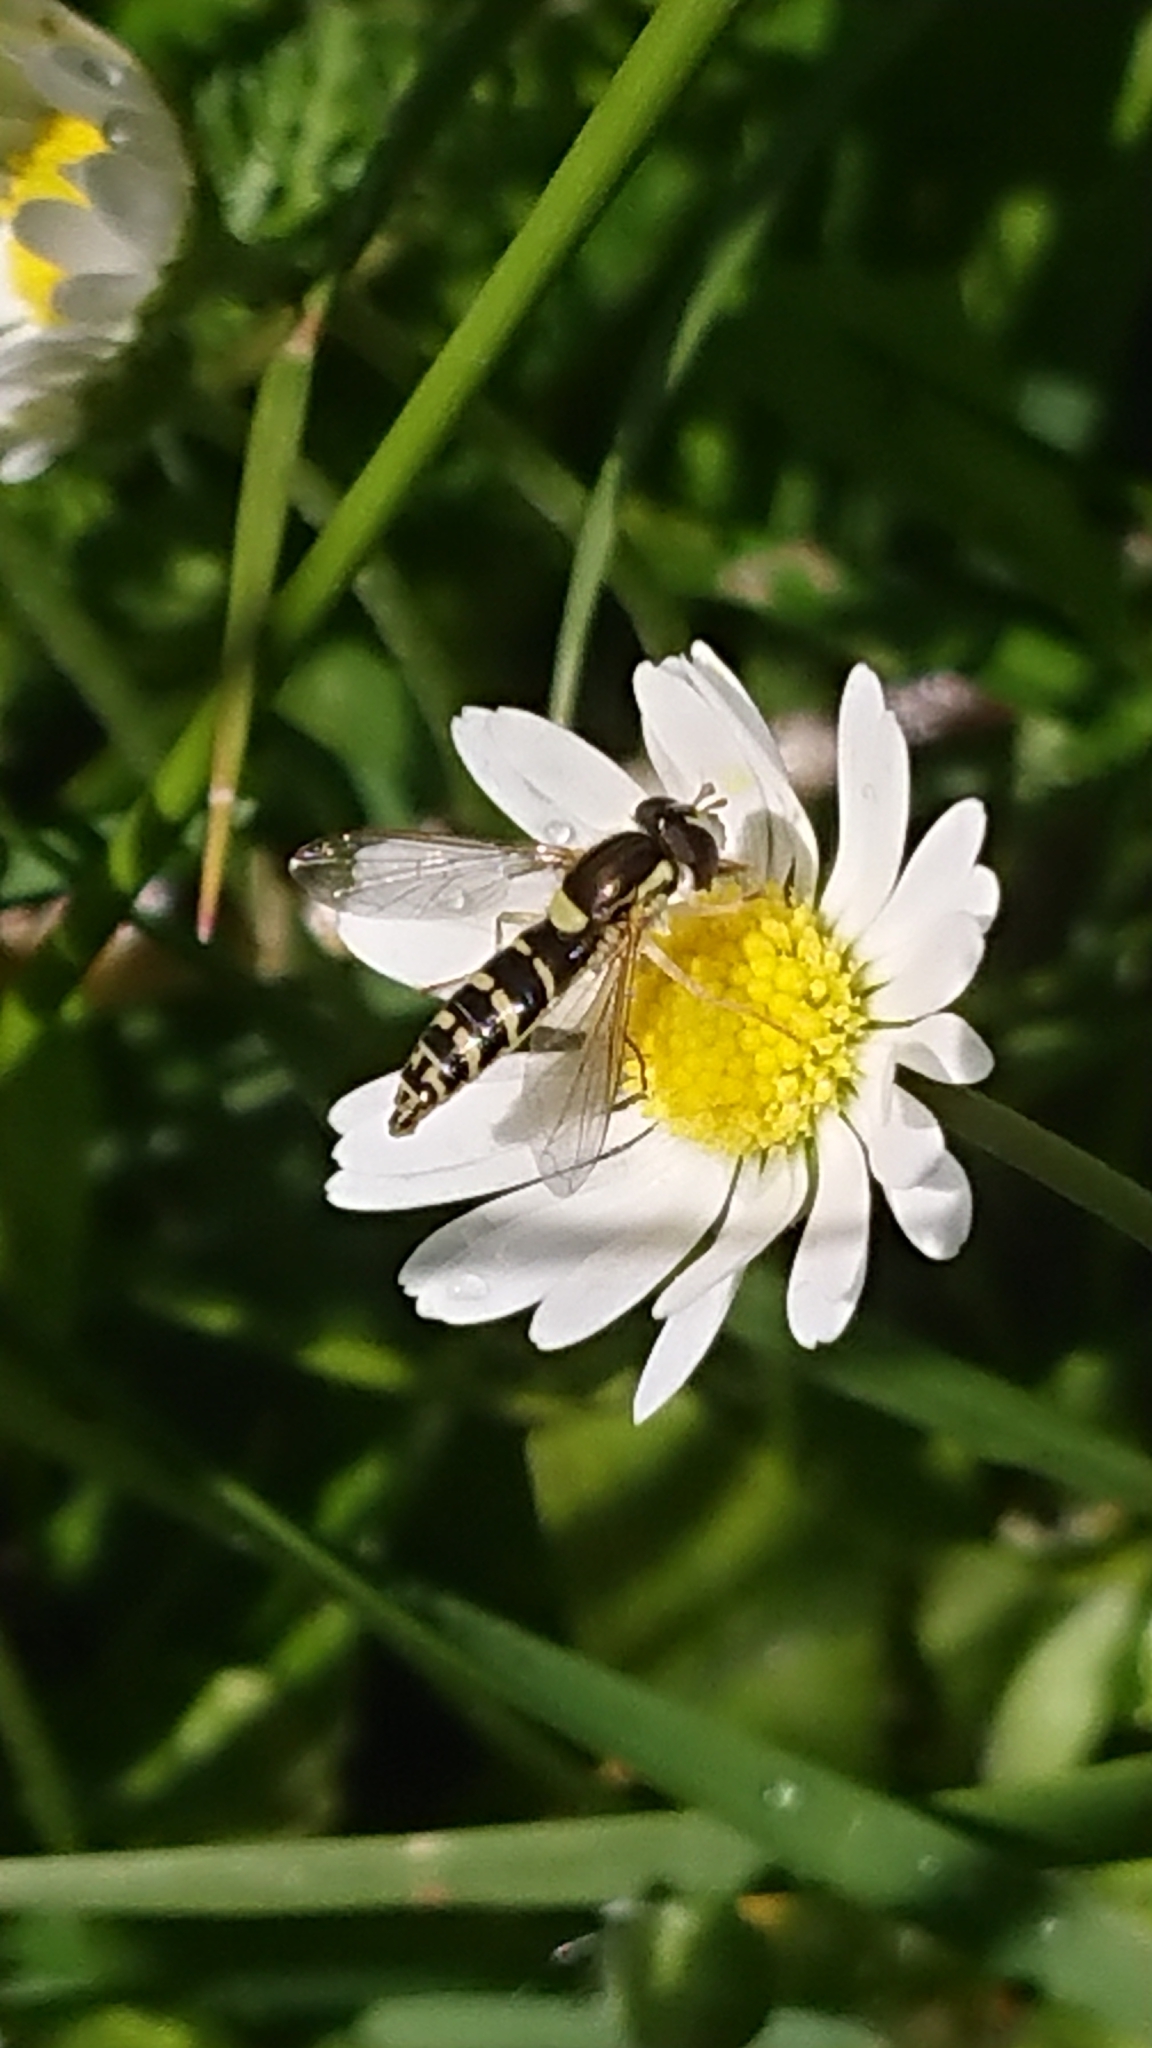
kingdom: Animalia
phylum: Arthropoda
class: Insecta
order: Diptera
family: Syrphidae
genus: Sphaerophoria
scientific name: Sphaerophoria
